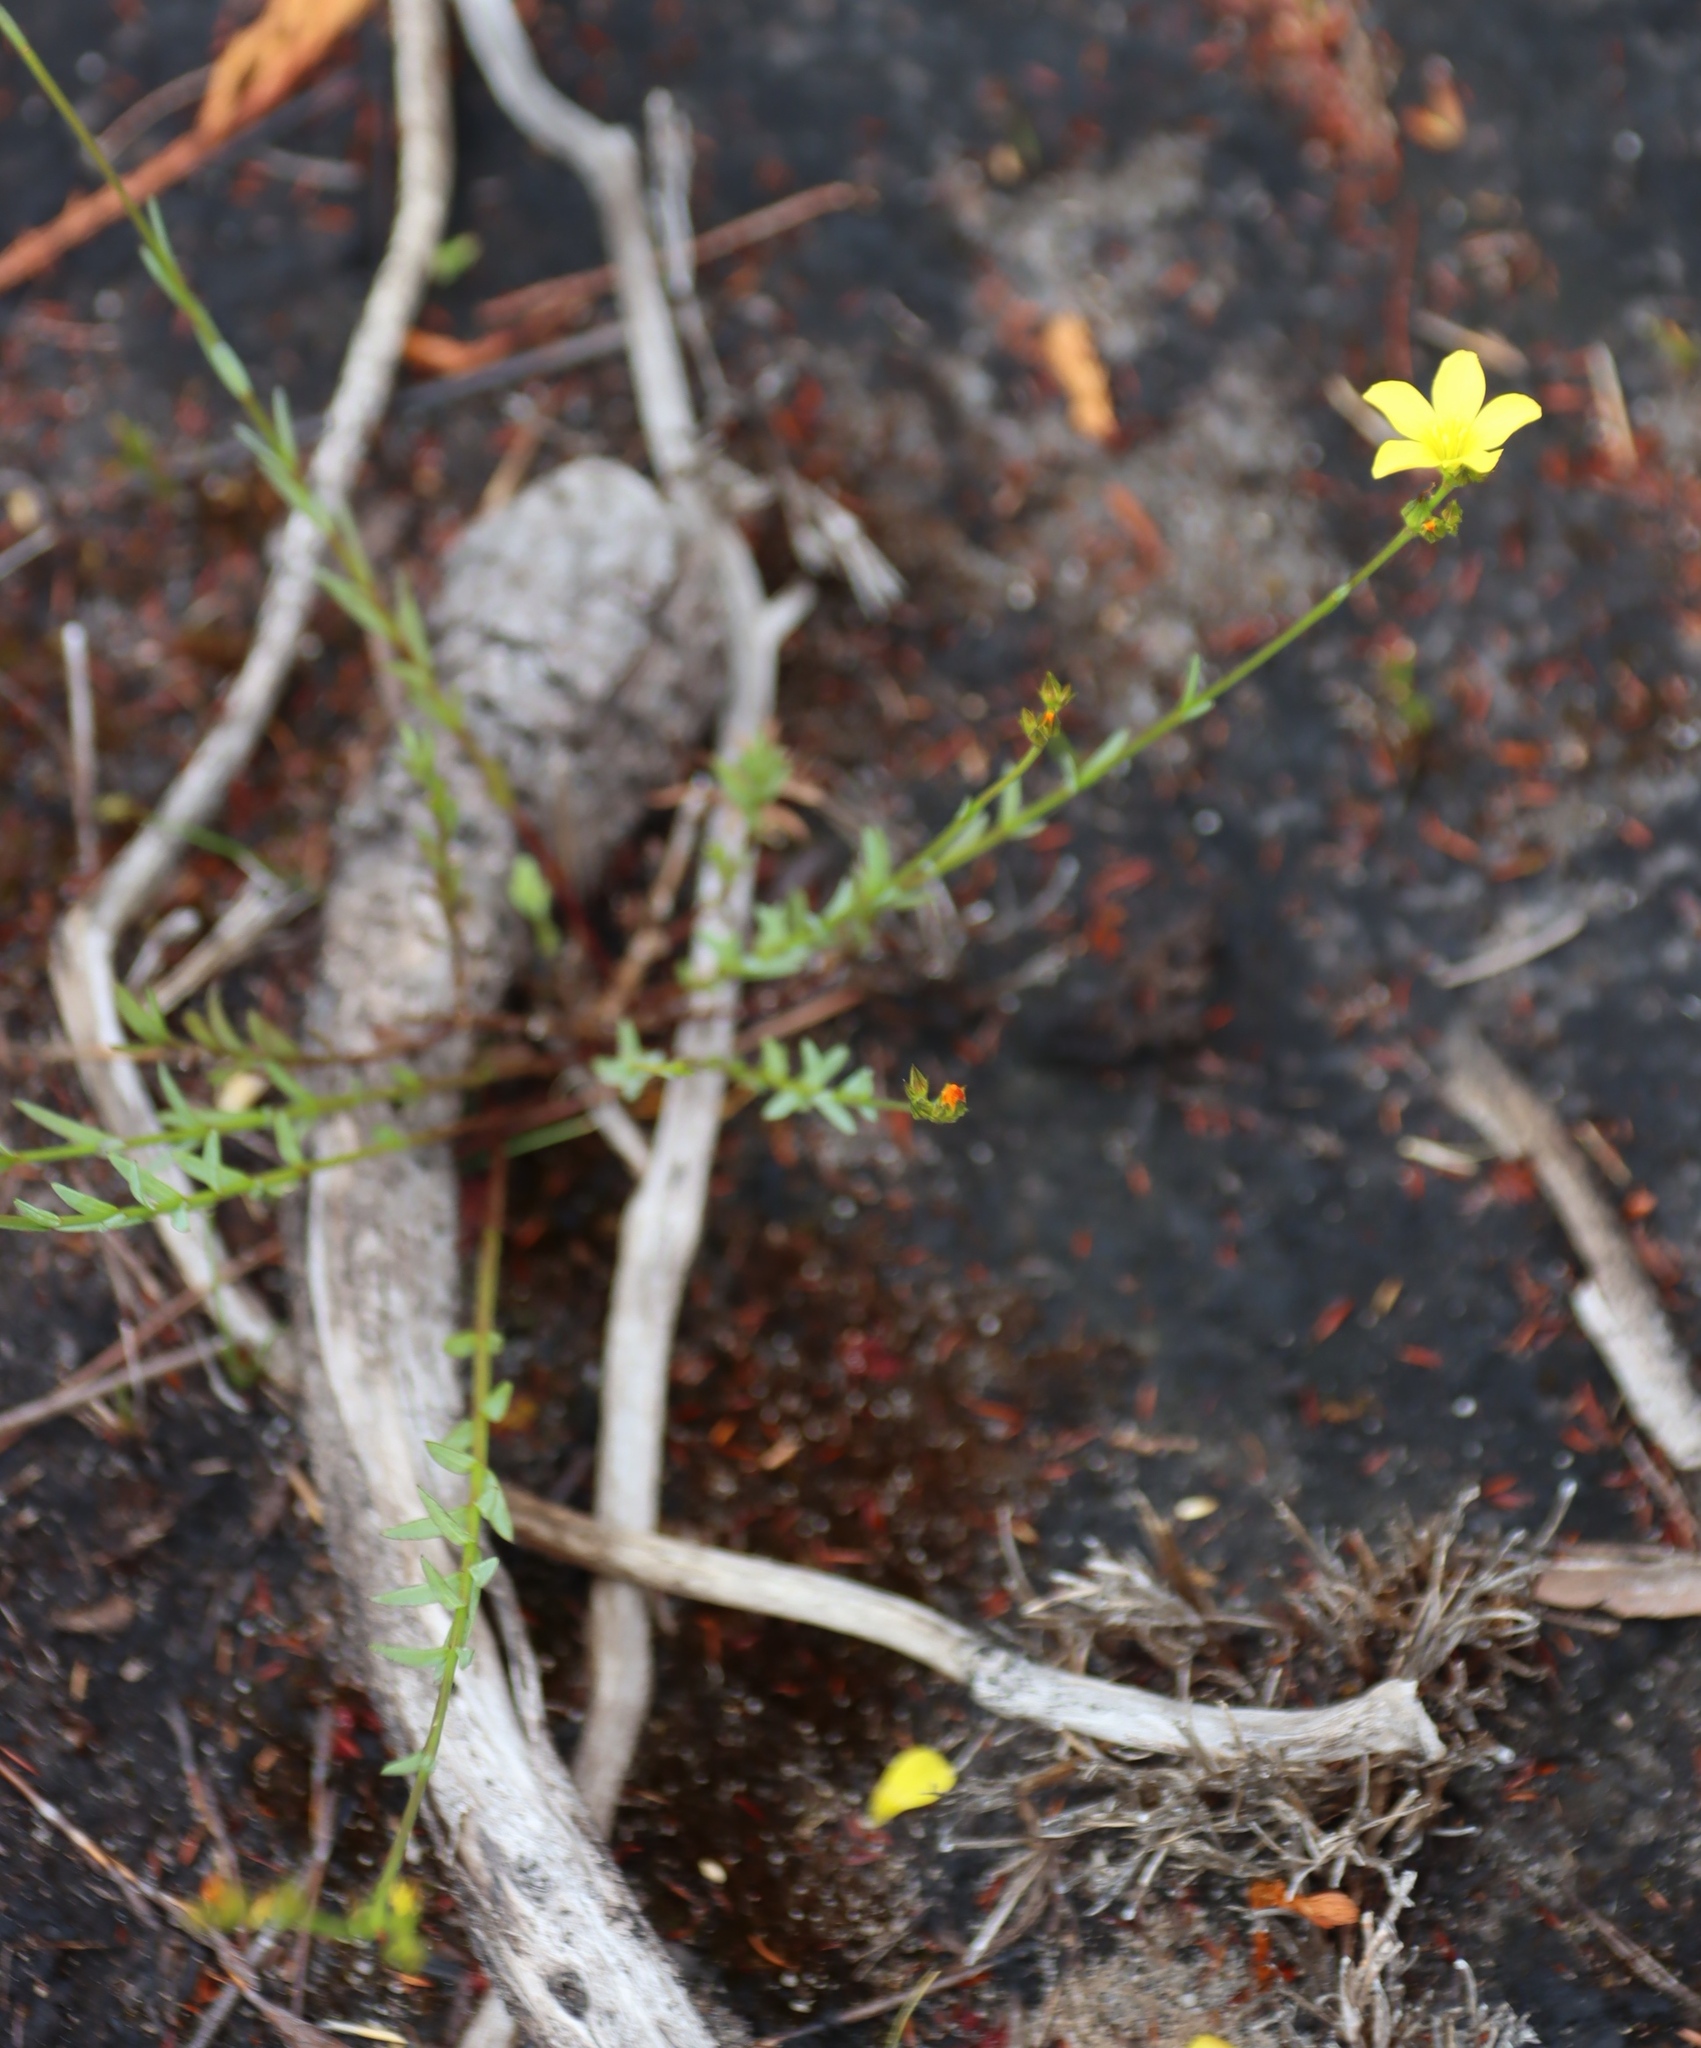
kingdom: Plantae
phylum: Tracheophyta
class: Magnoliopsida
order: Malpighiales
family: Linaceae
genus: Linum
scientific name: Linum africanum
